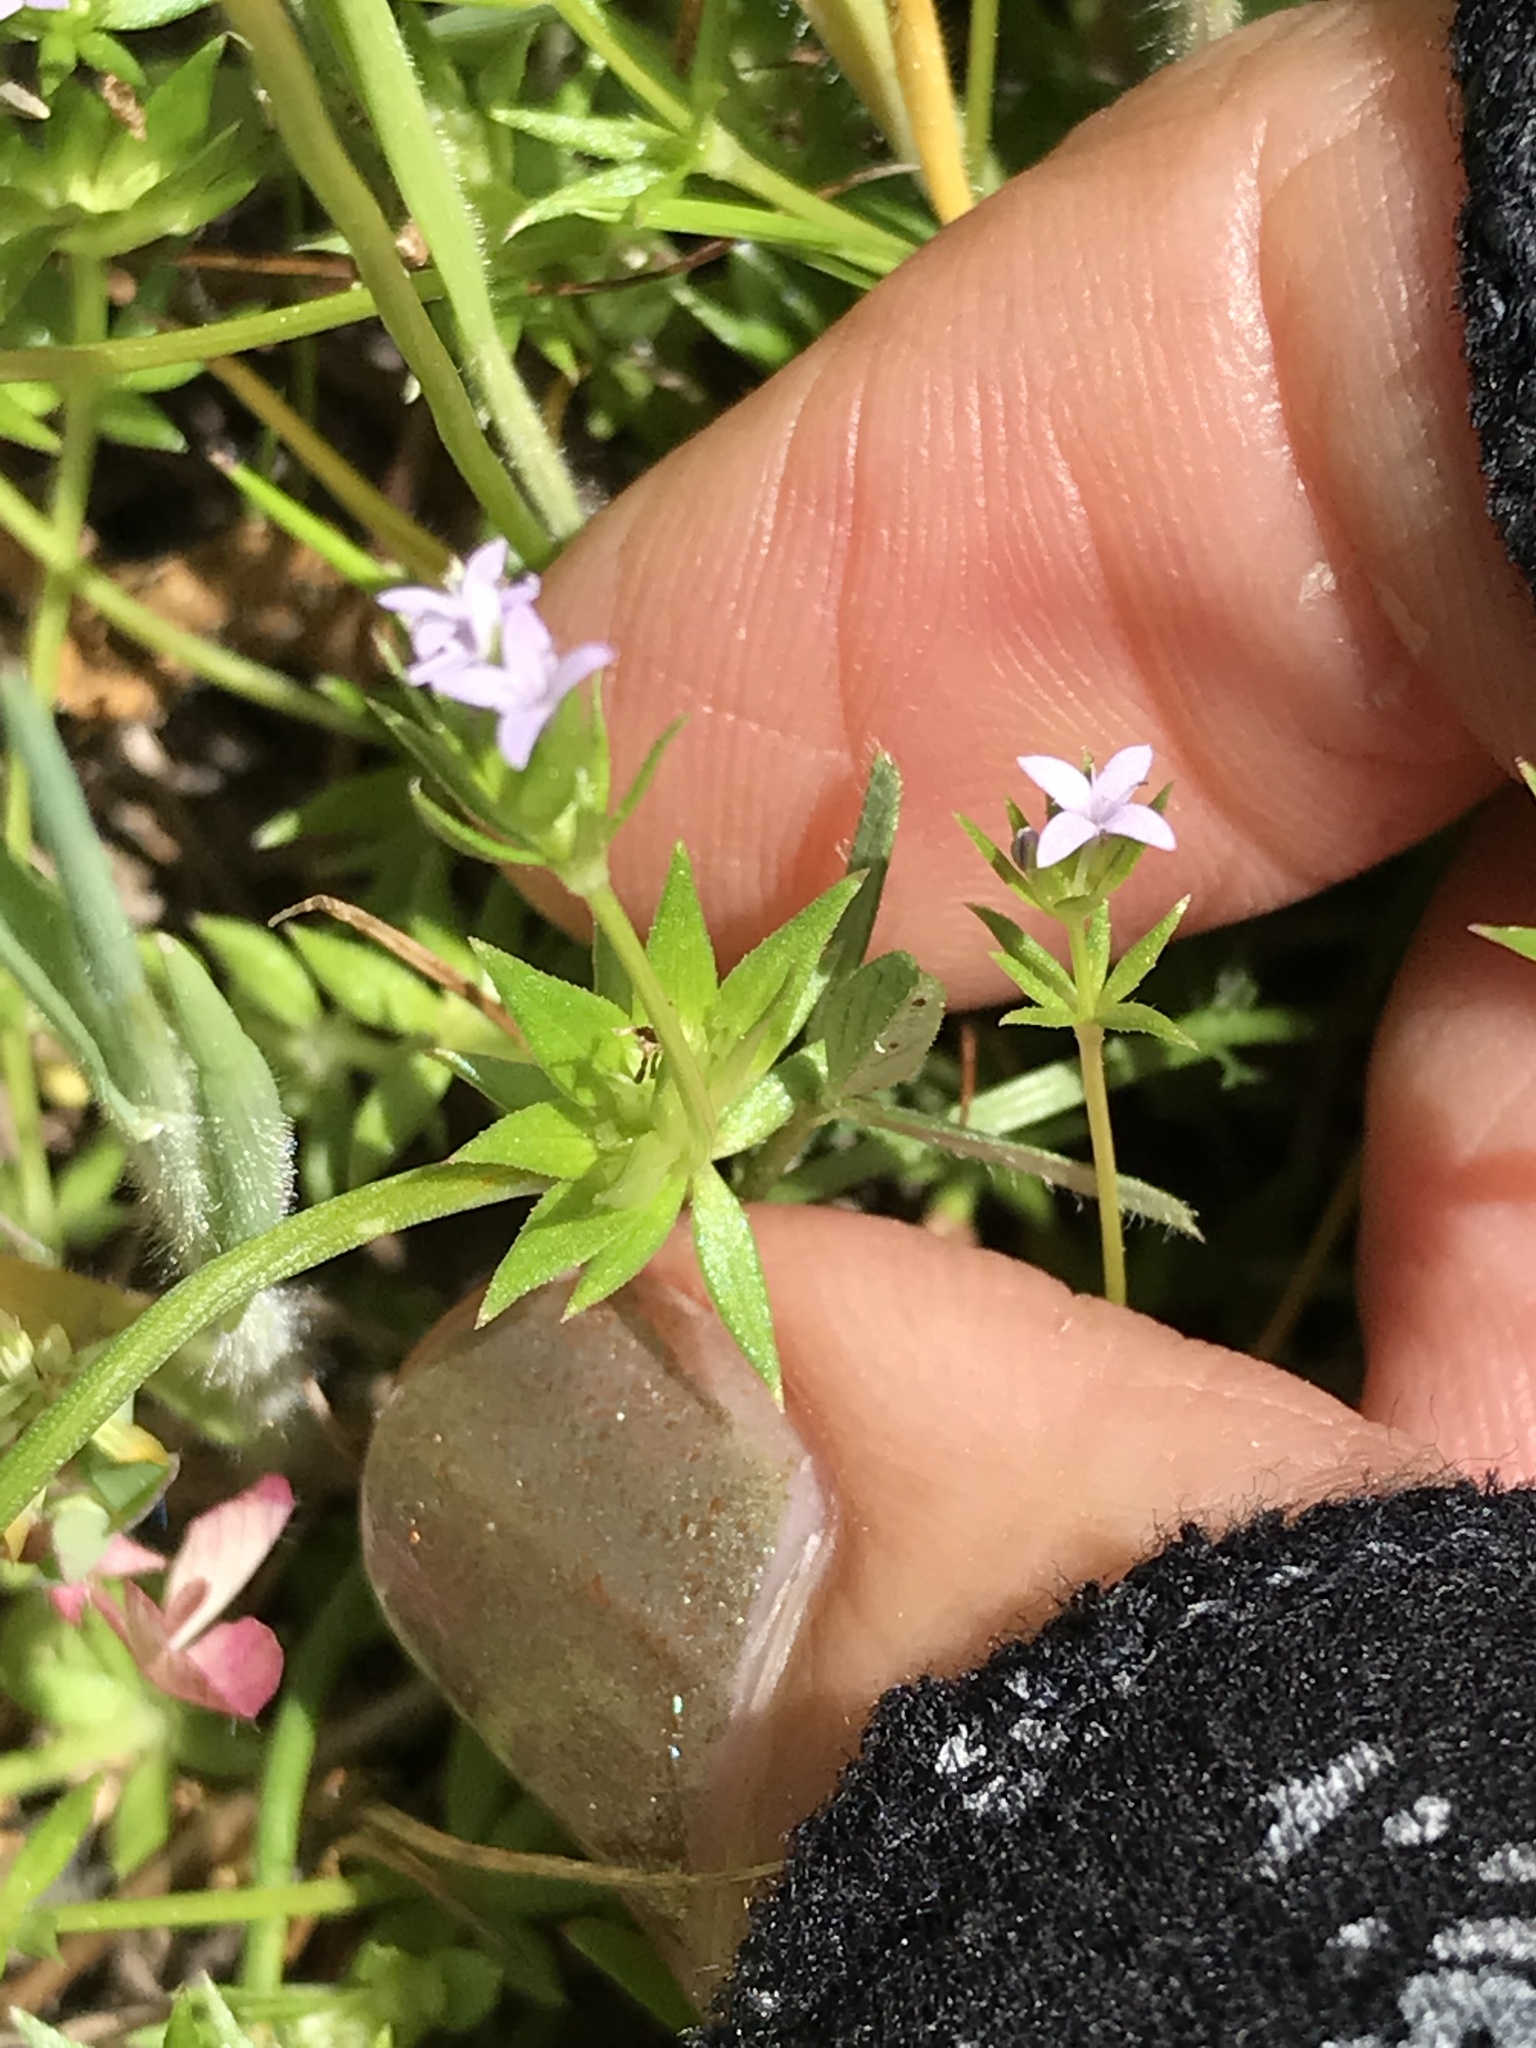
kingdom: Plantae
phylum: Tracheophyta
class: Magnoliopsida
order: Gentianales
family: Rubiaceae
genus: Sherardia
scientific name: Sherardia arvensis
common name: Field madder
